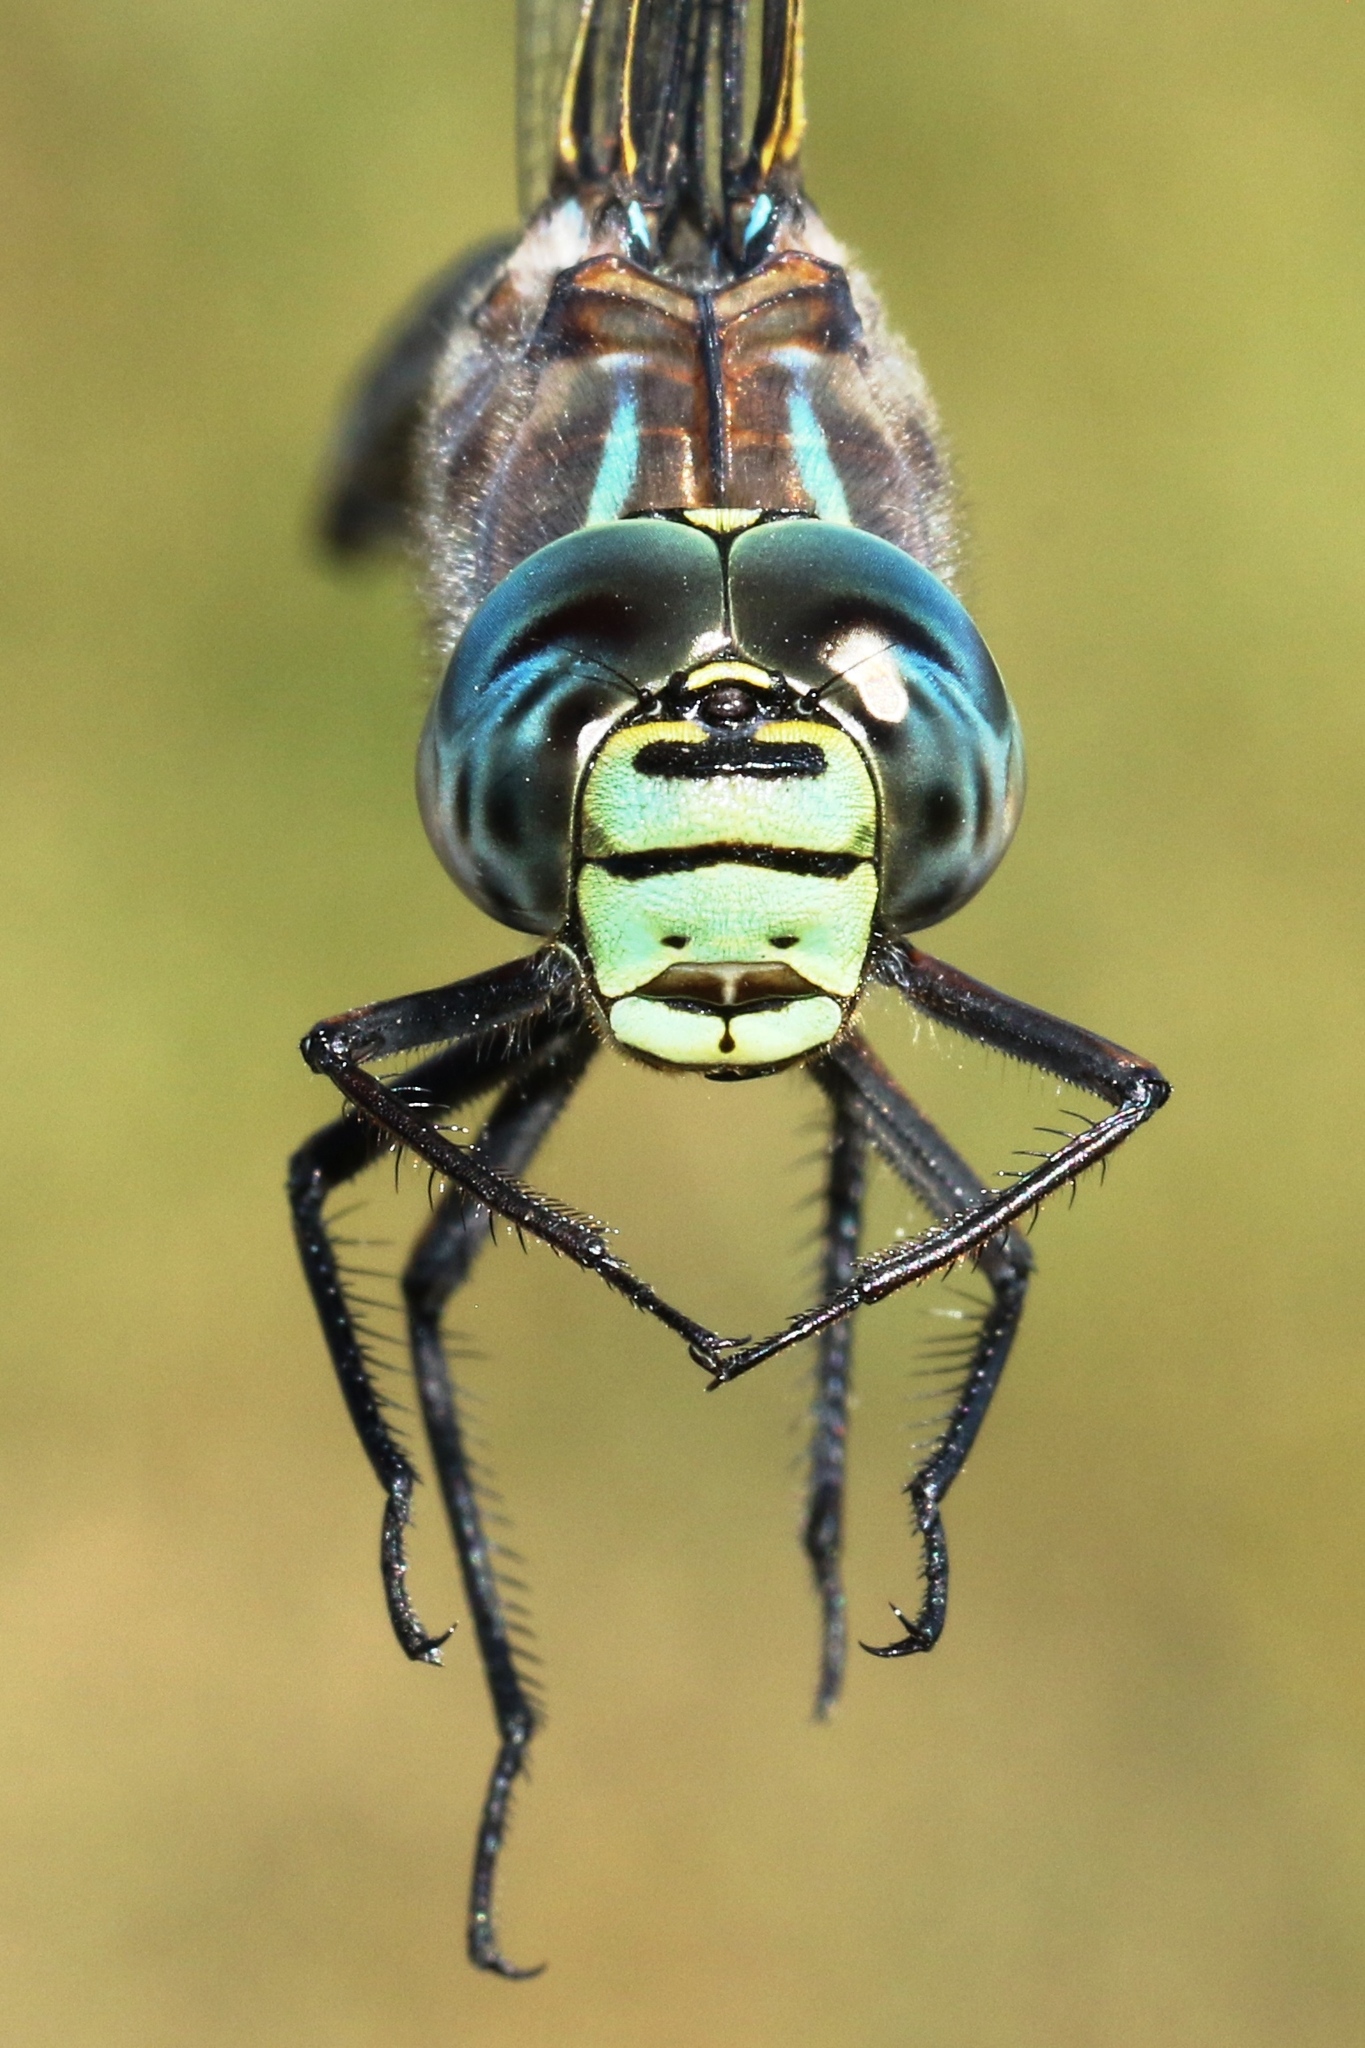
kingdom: Animalia
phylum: Arthropoda
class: Insecta
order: Odonata
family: Aeshnidae
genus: Aeshna
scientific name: Aeshna eremita
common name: Lake darner
